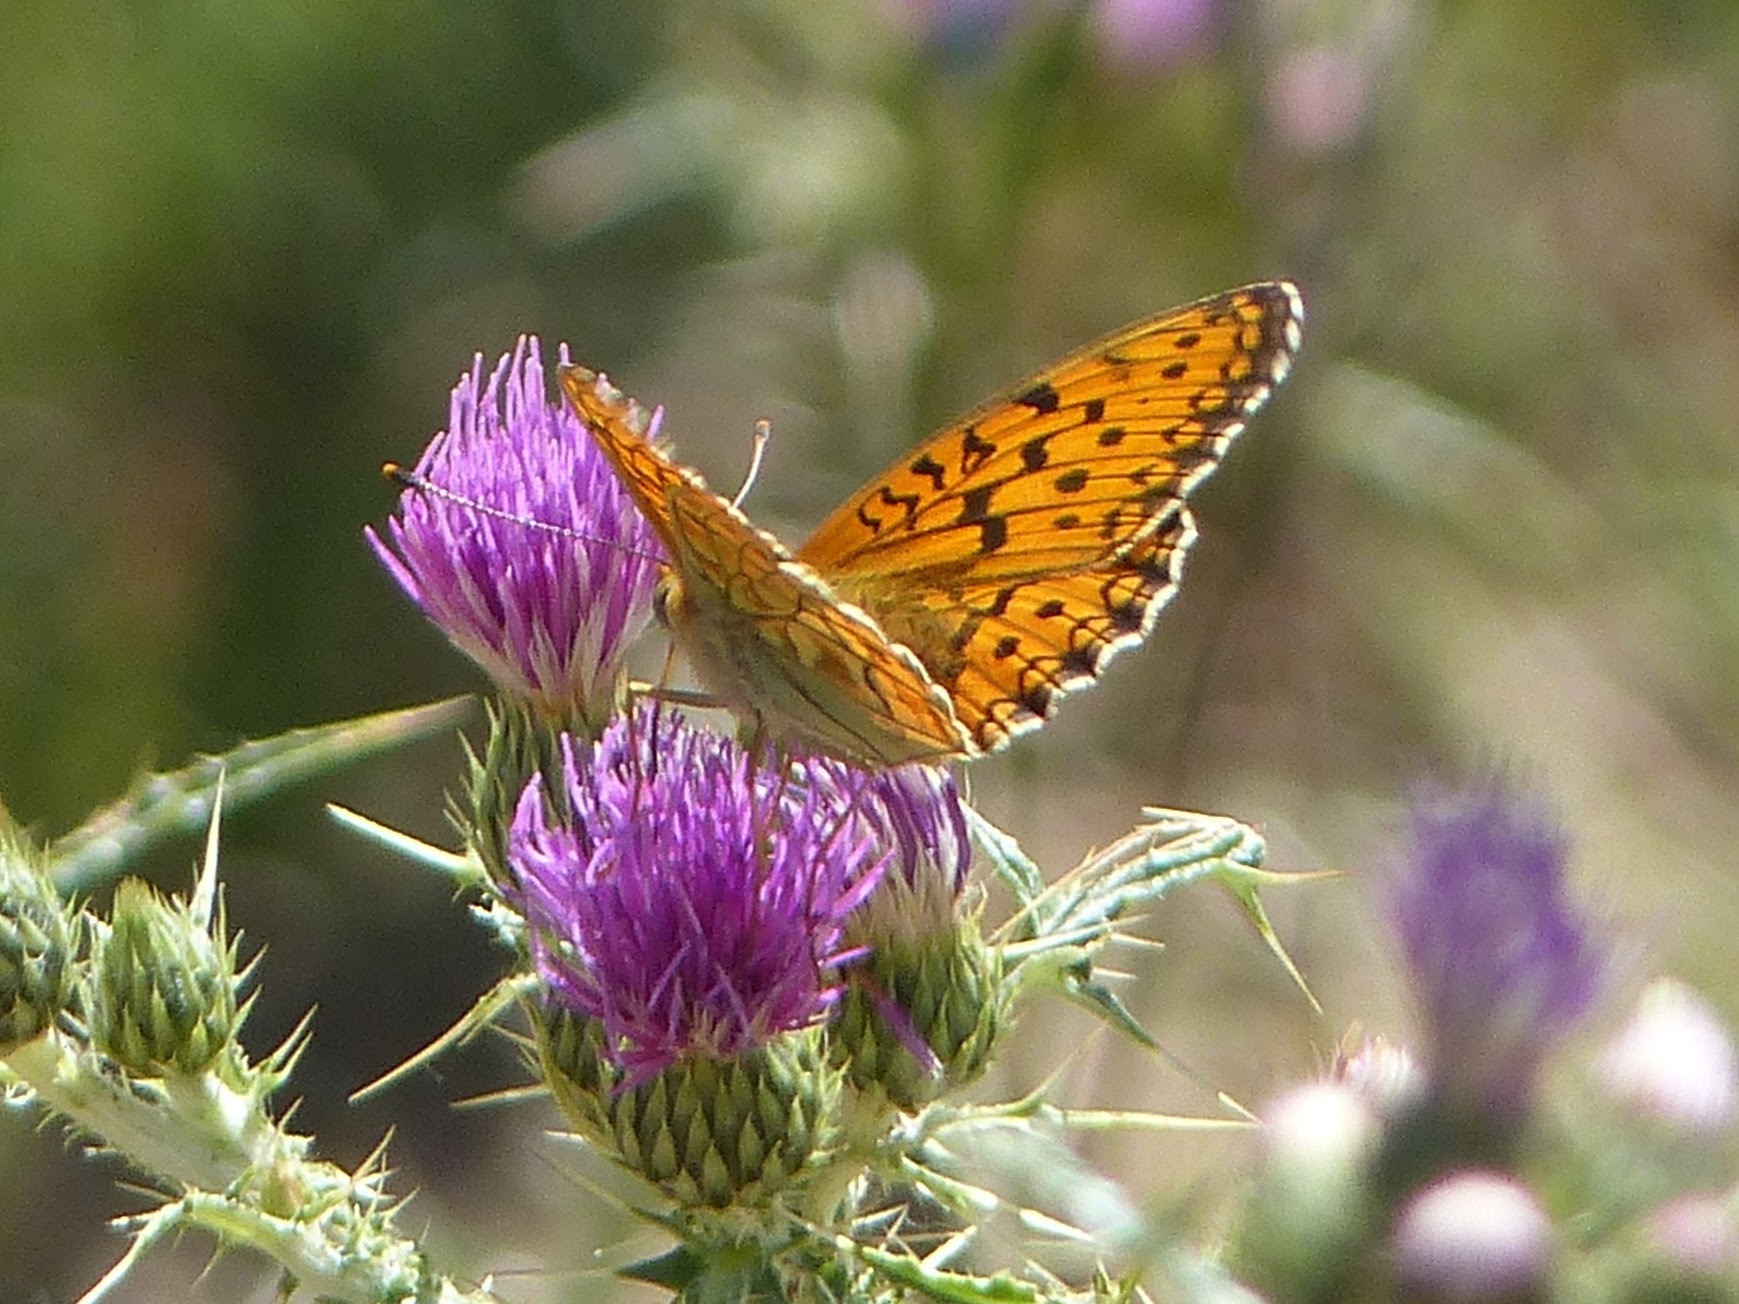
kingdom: Animalia
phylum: Arthropoda
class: Insecta
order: Lepidoptera
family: Nymphalidae
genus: Fabriciana
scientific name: Fabriciana niobe
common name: Niobe fritillary
